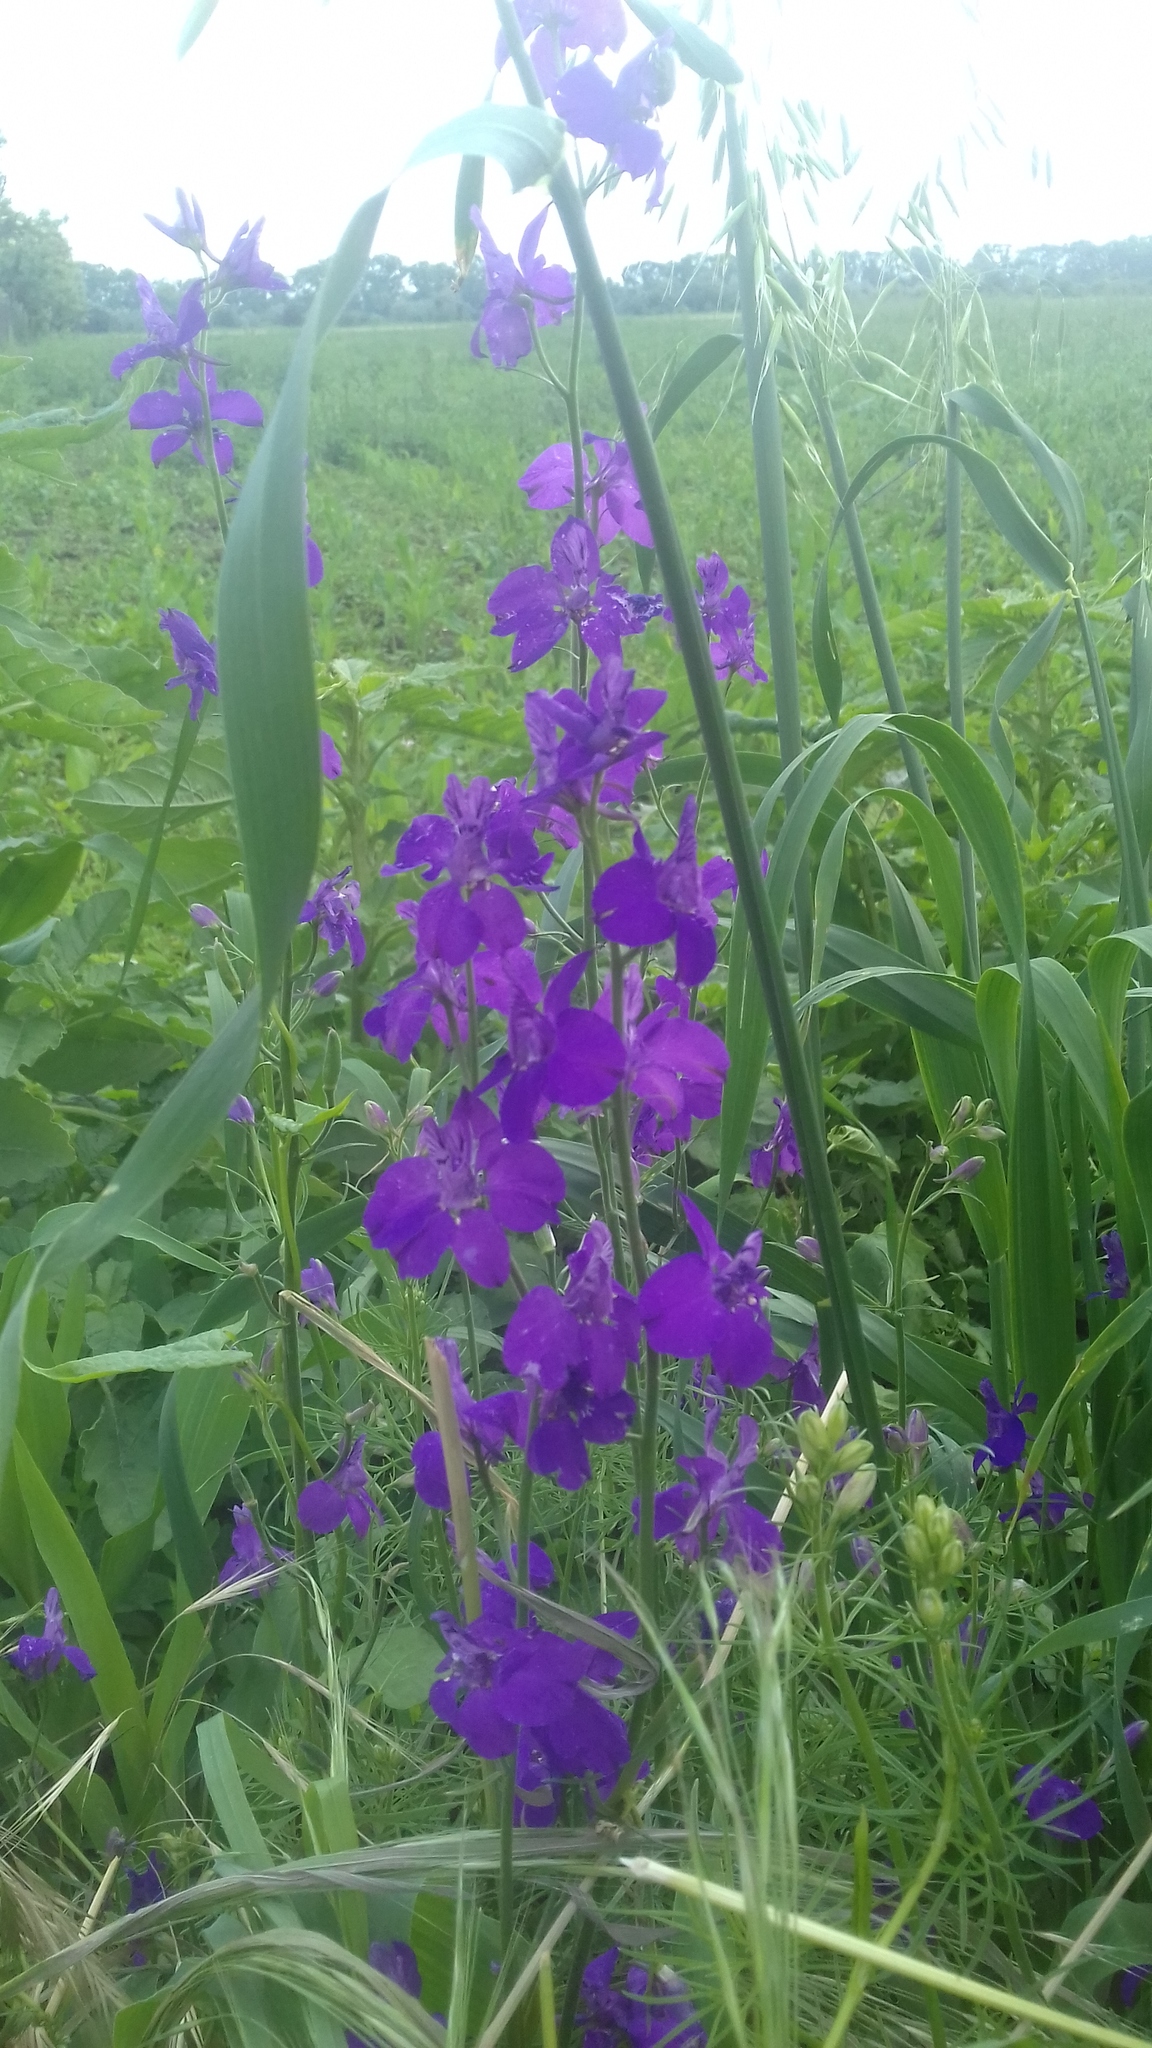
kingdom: Plantae
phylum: Tracheophyta
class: Magnoliopsida
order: Ranunculales
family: Ranunculaceae
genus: Delphinium
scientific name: Delphinium consolida
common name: Branching larkspur
